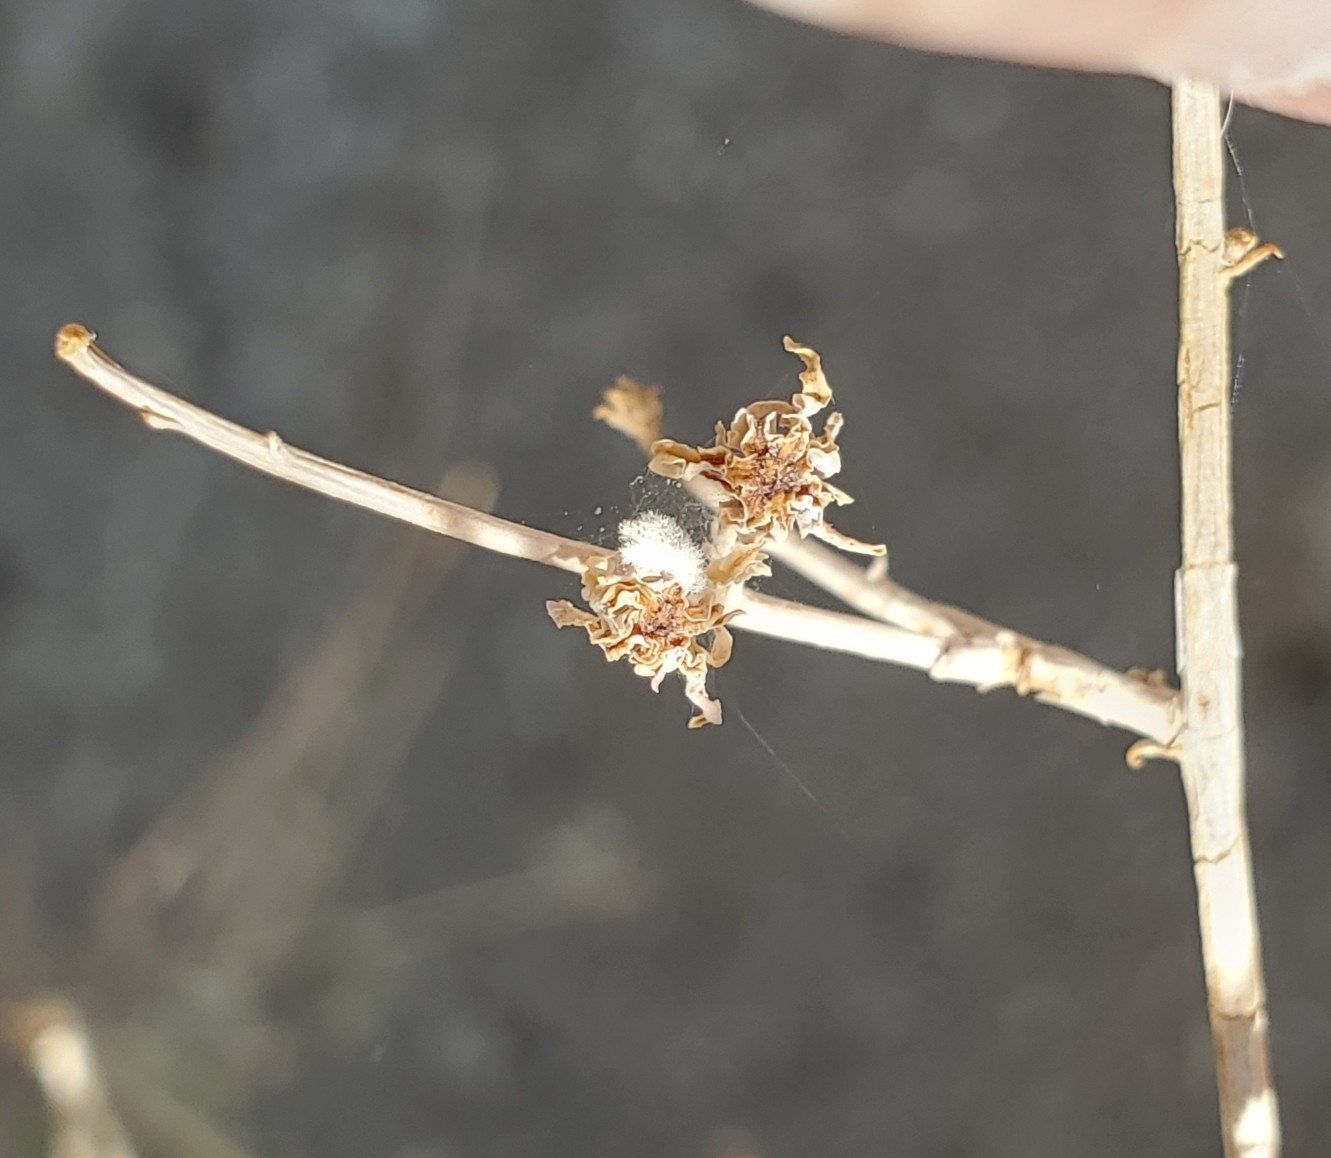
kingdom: Plantae
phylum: Tracheophyta
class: Magnoliopsida
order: Asterales
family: Asteraceae
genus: Stephanomeria
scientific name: Stephanomeria pauciflora
